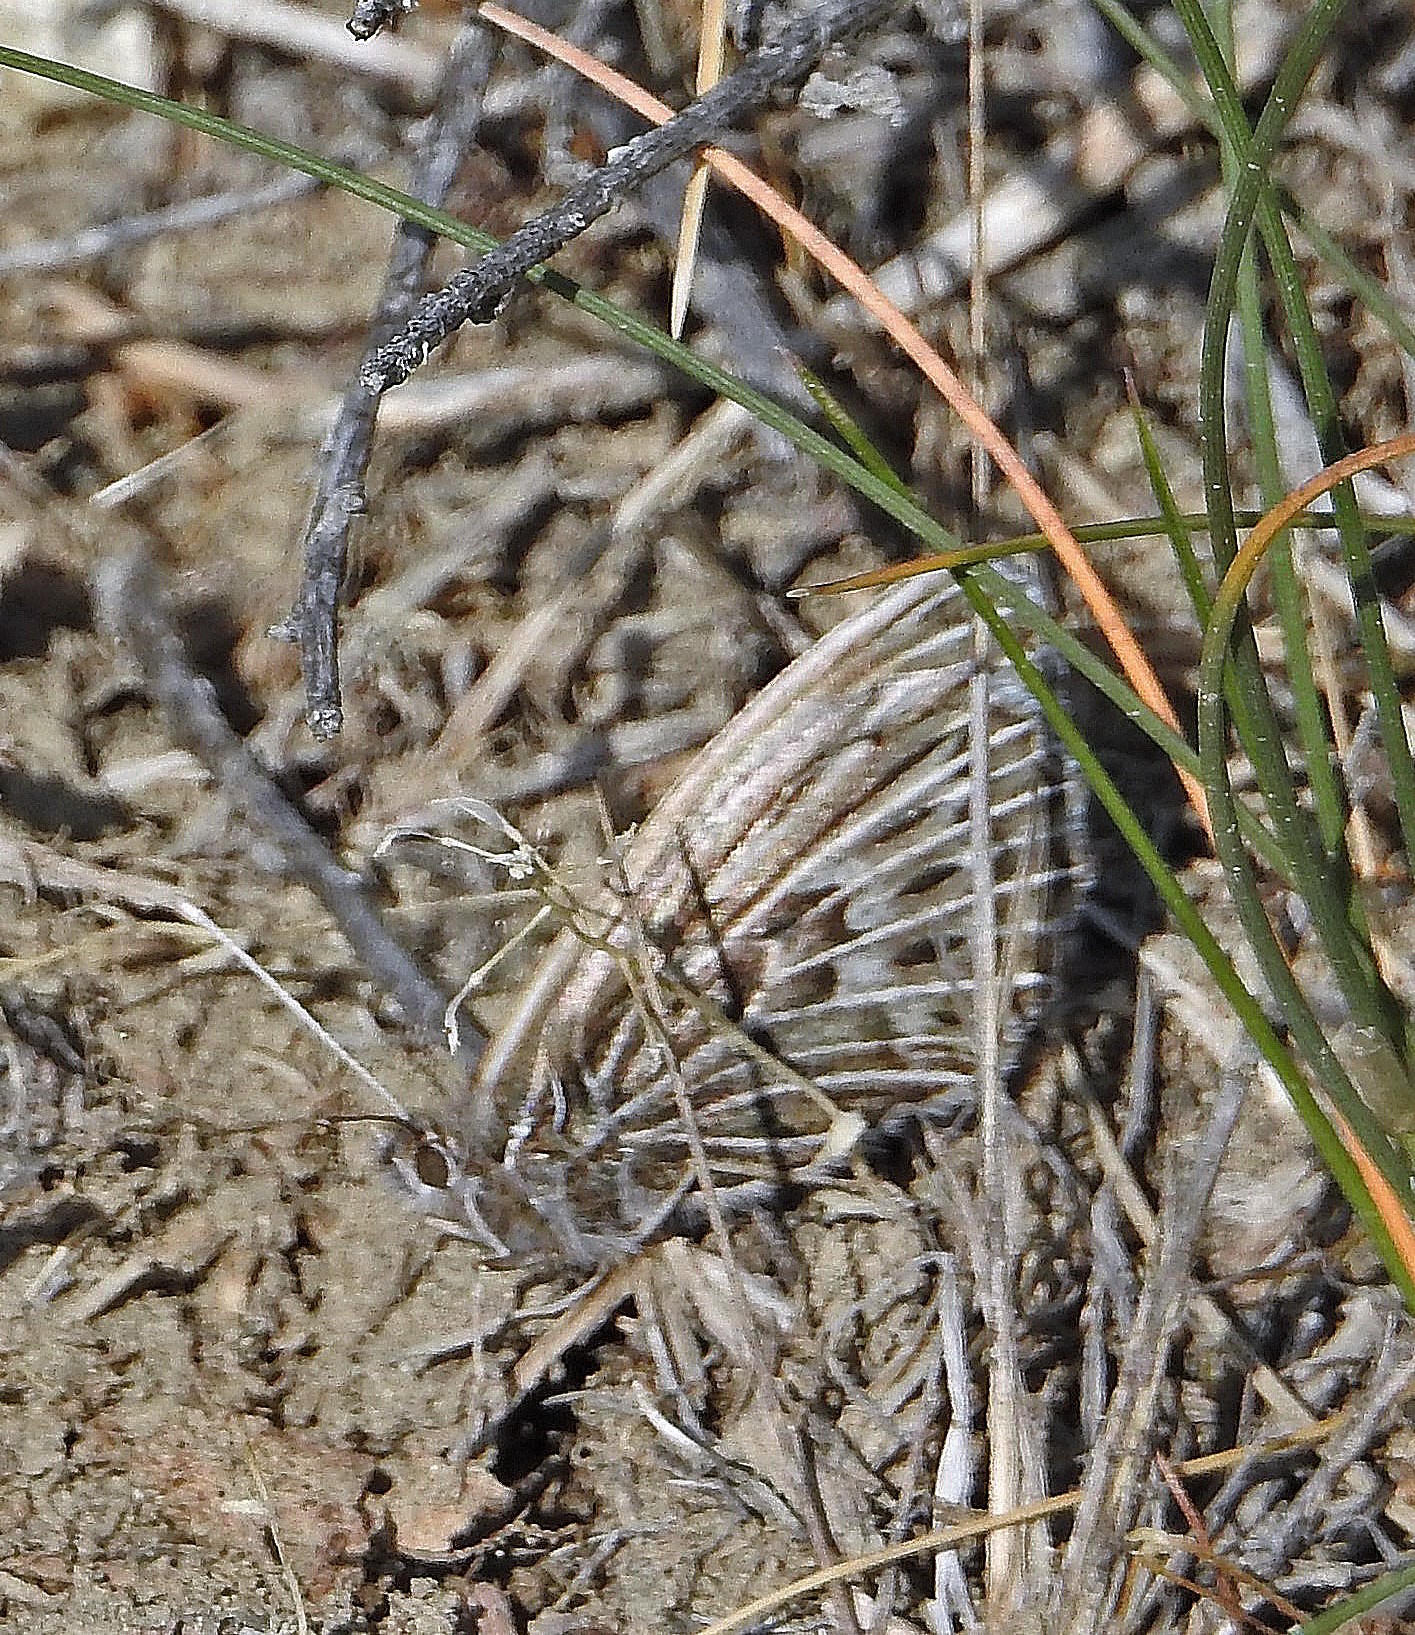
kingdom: Animalia
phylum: Arthropoda
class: Insecta
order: Lepidoptera
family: Nymphalidae
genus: Argyrophorus
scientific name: Argyrophorus argenteus
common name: Silver satyr
